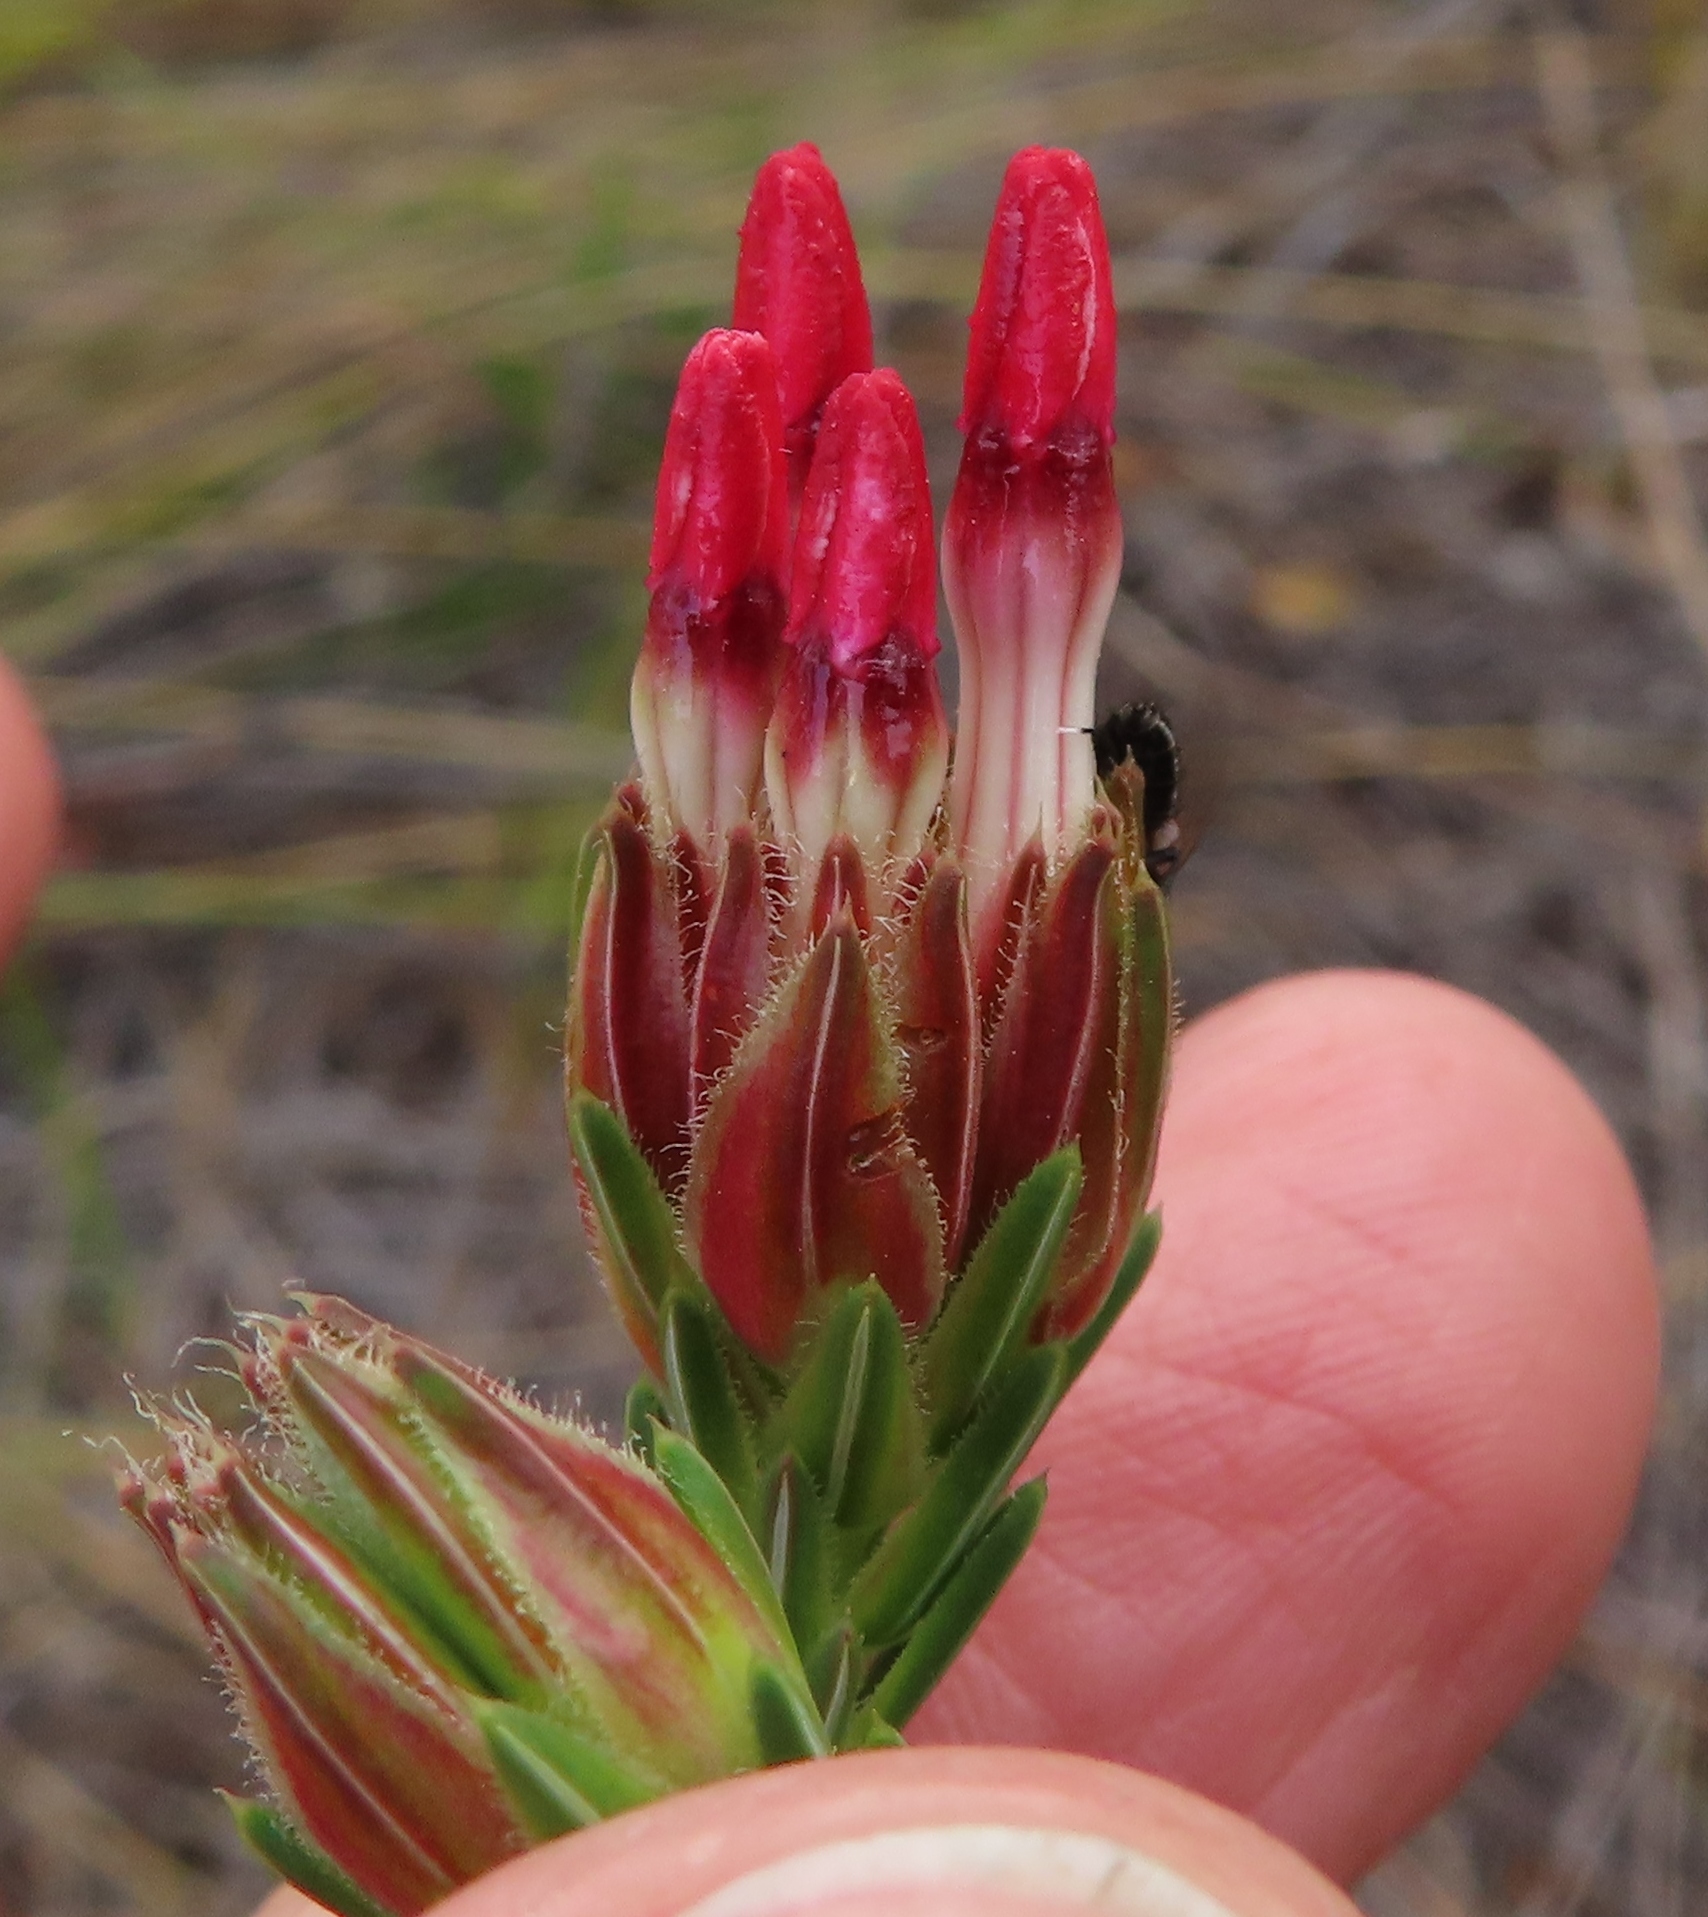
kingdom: Plantae
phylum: Tracheophyta
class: Magnoliopsida
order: Ericales
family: Ericaceae
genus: Erica
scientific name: Erica ampullacea
